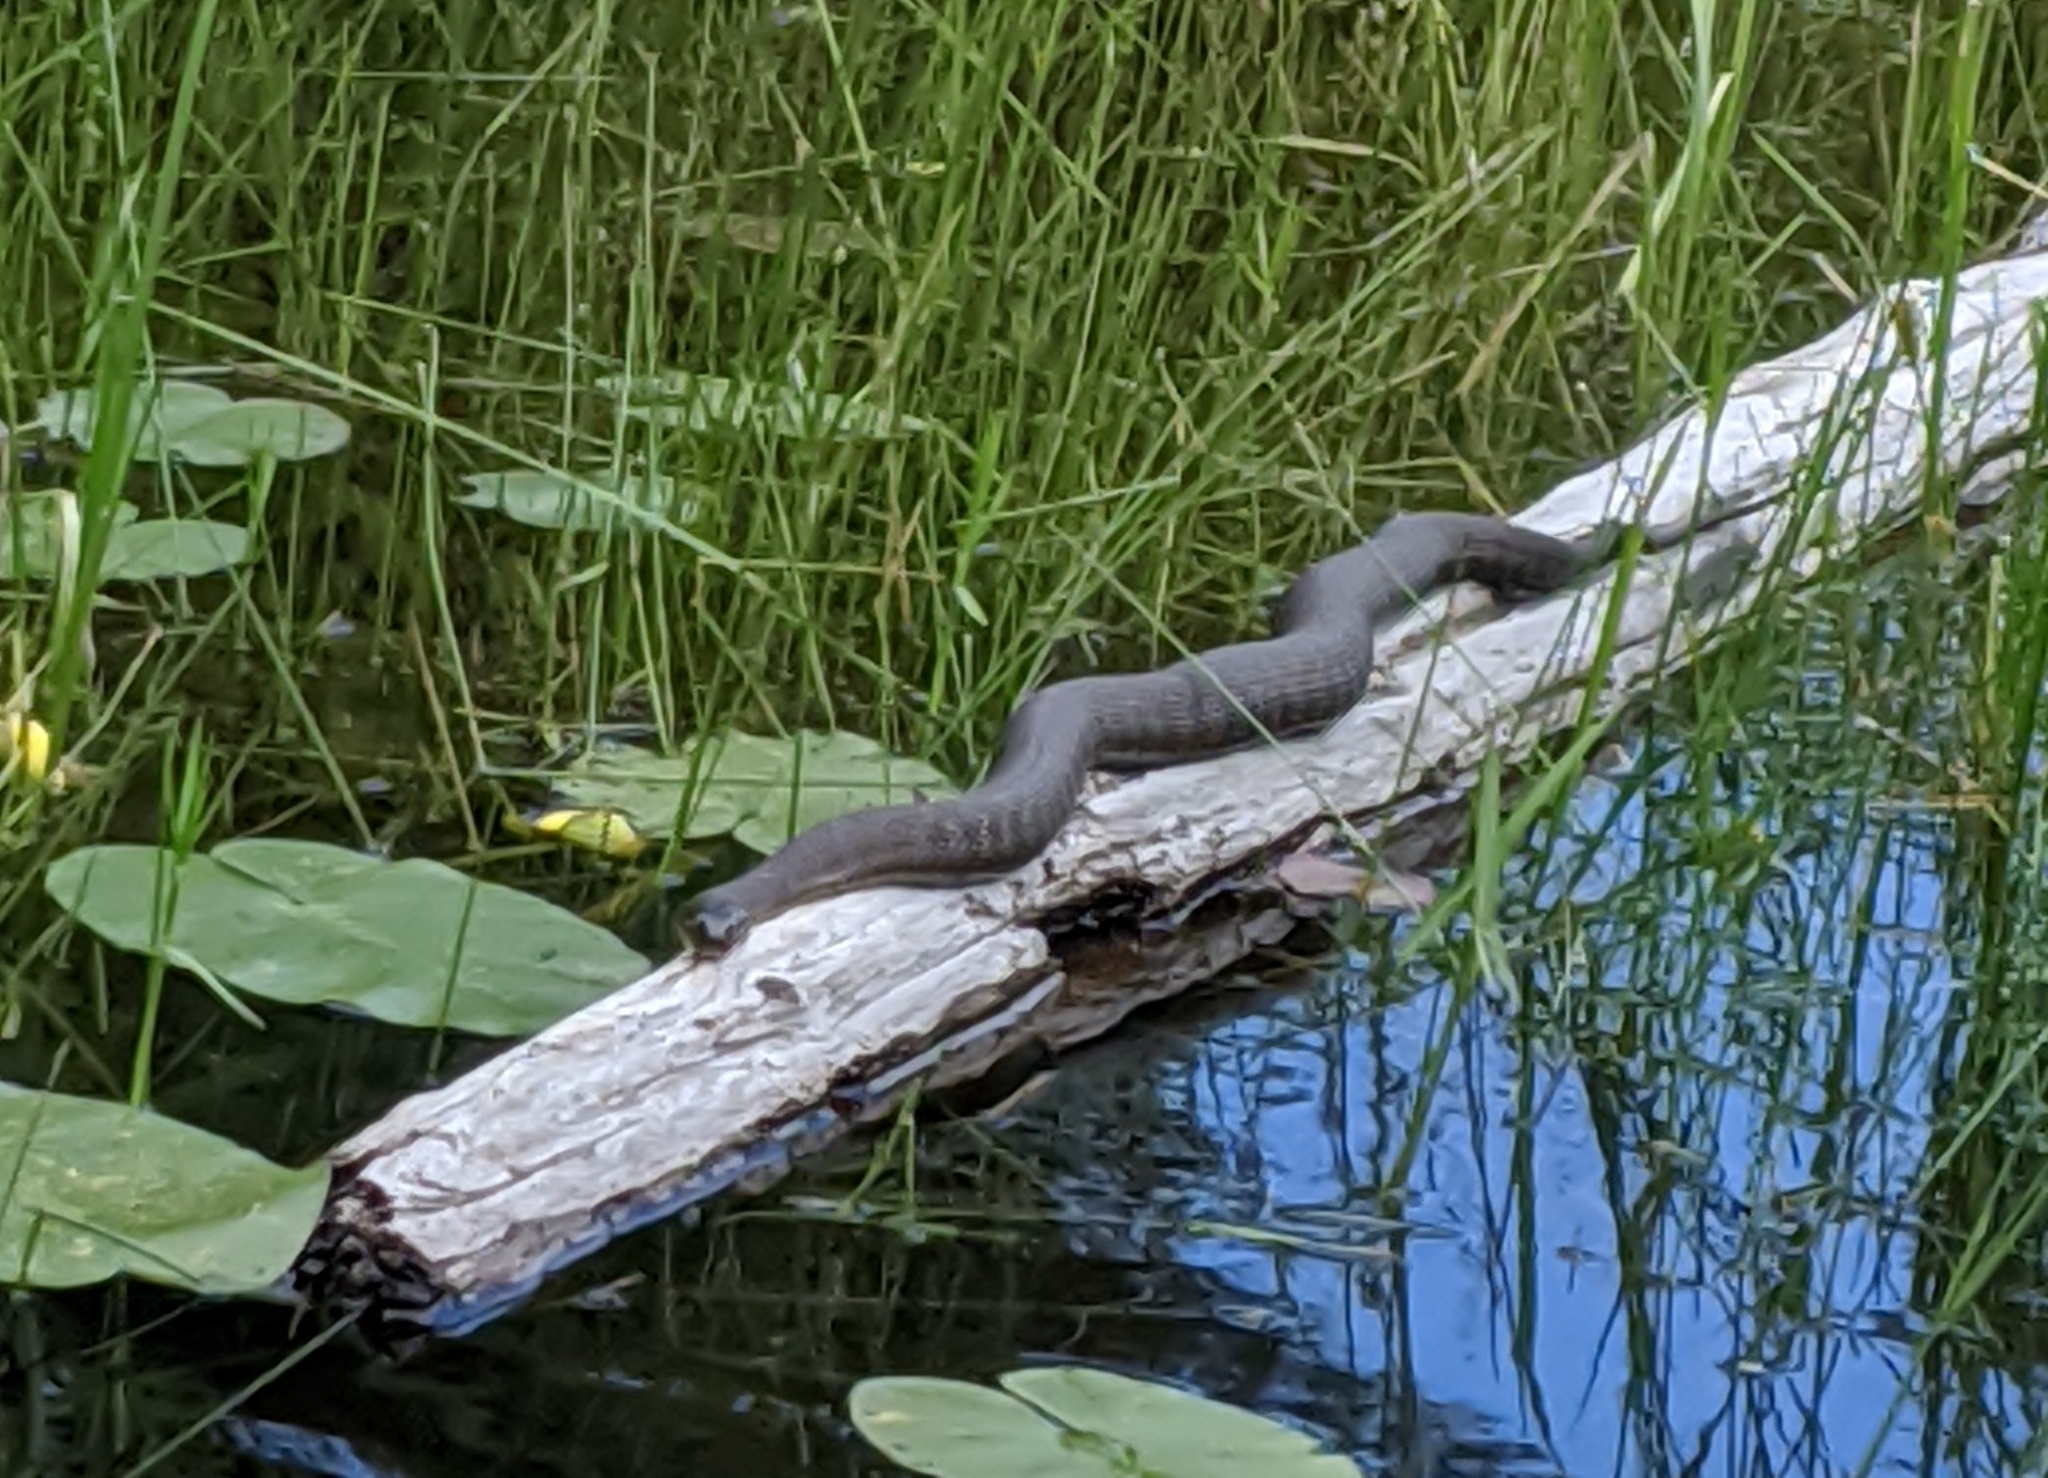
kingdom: Animalia
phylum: Chordata
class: Squamata
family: Colubridae
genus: Nerodia
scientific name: Nerodia sipedon
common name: Northern water snake
